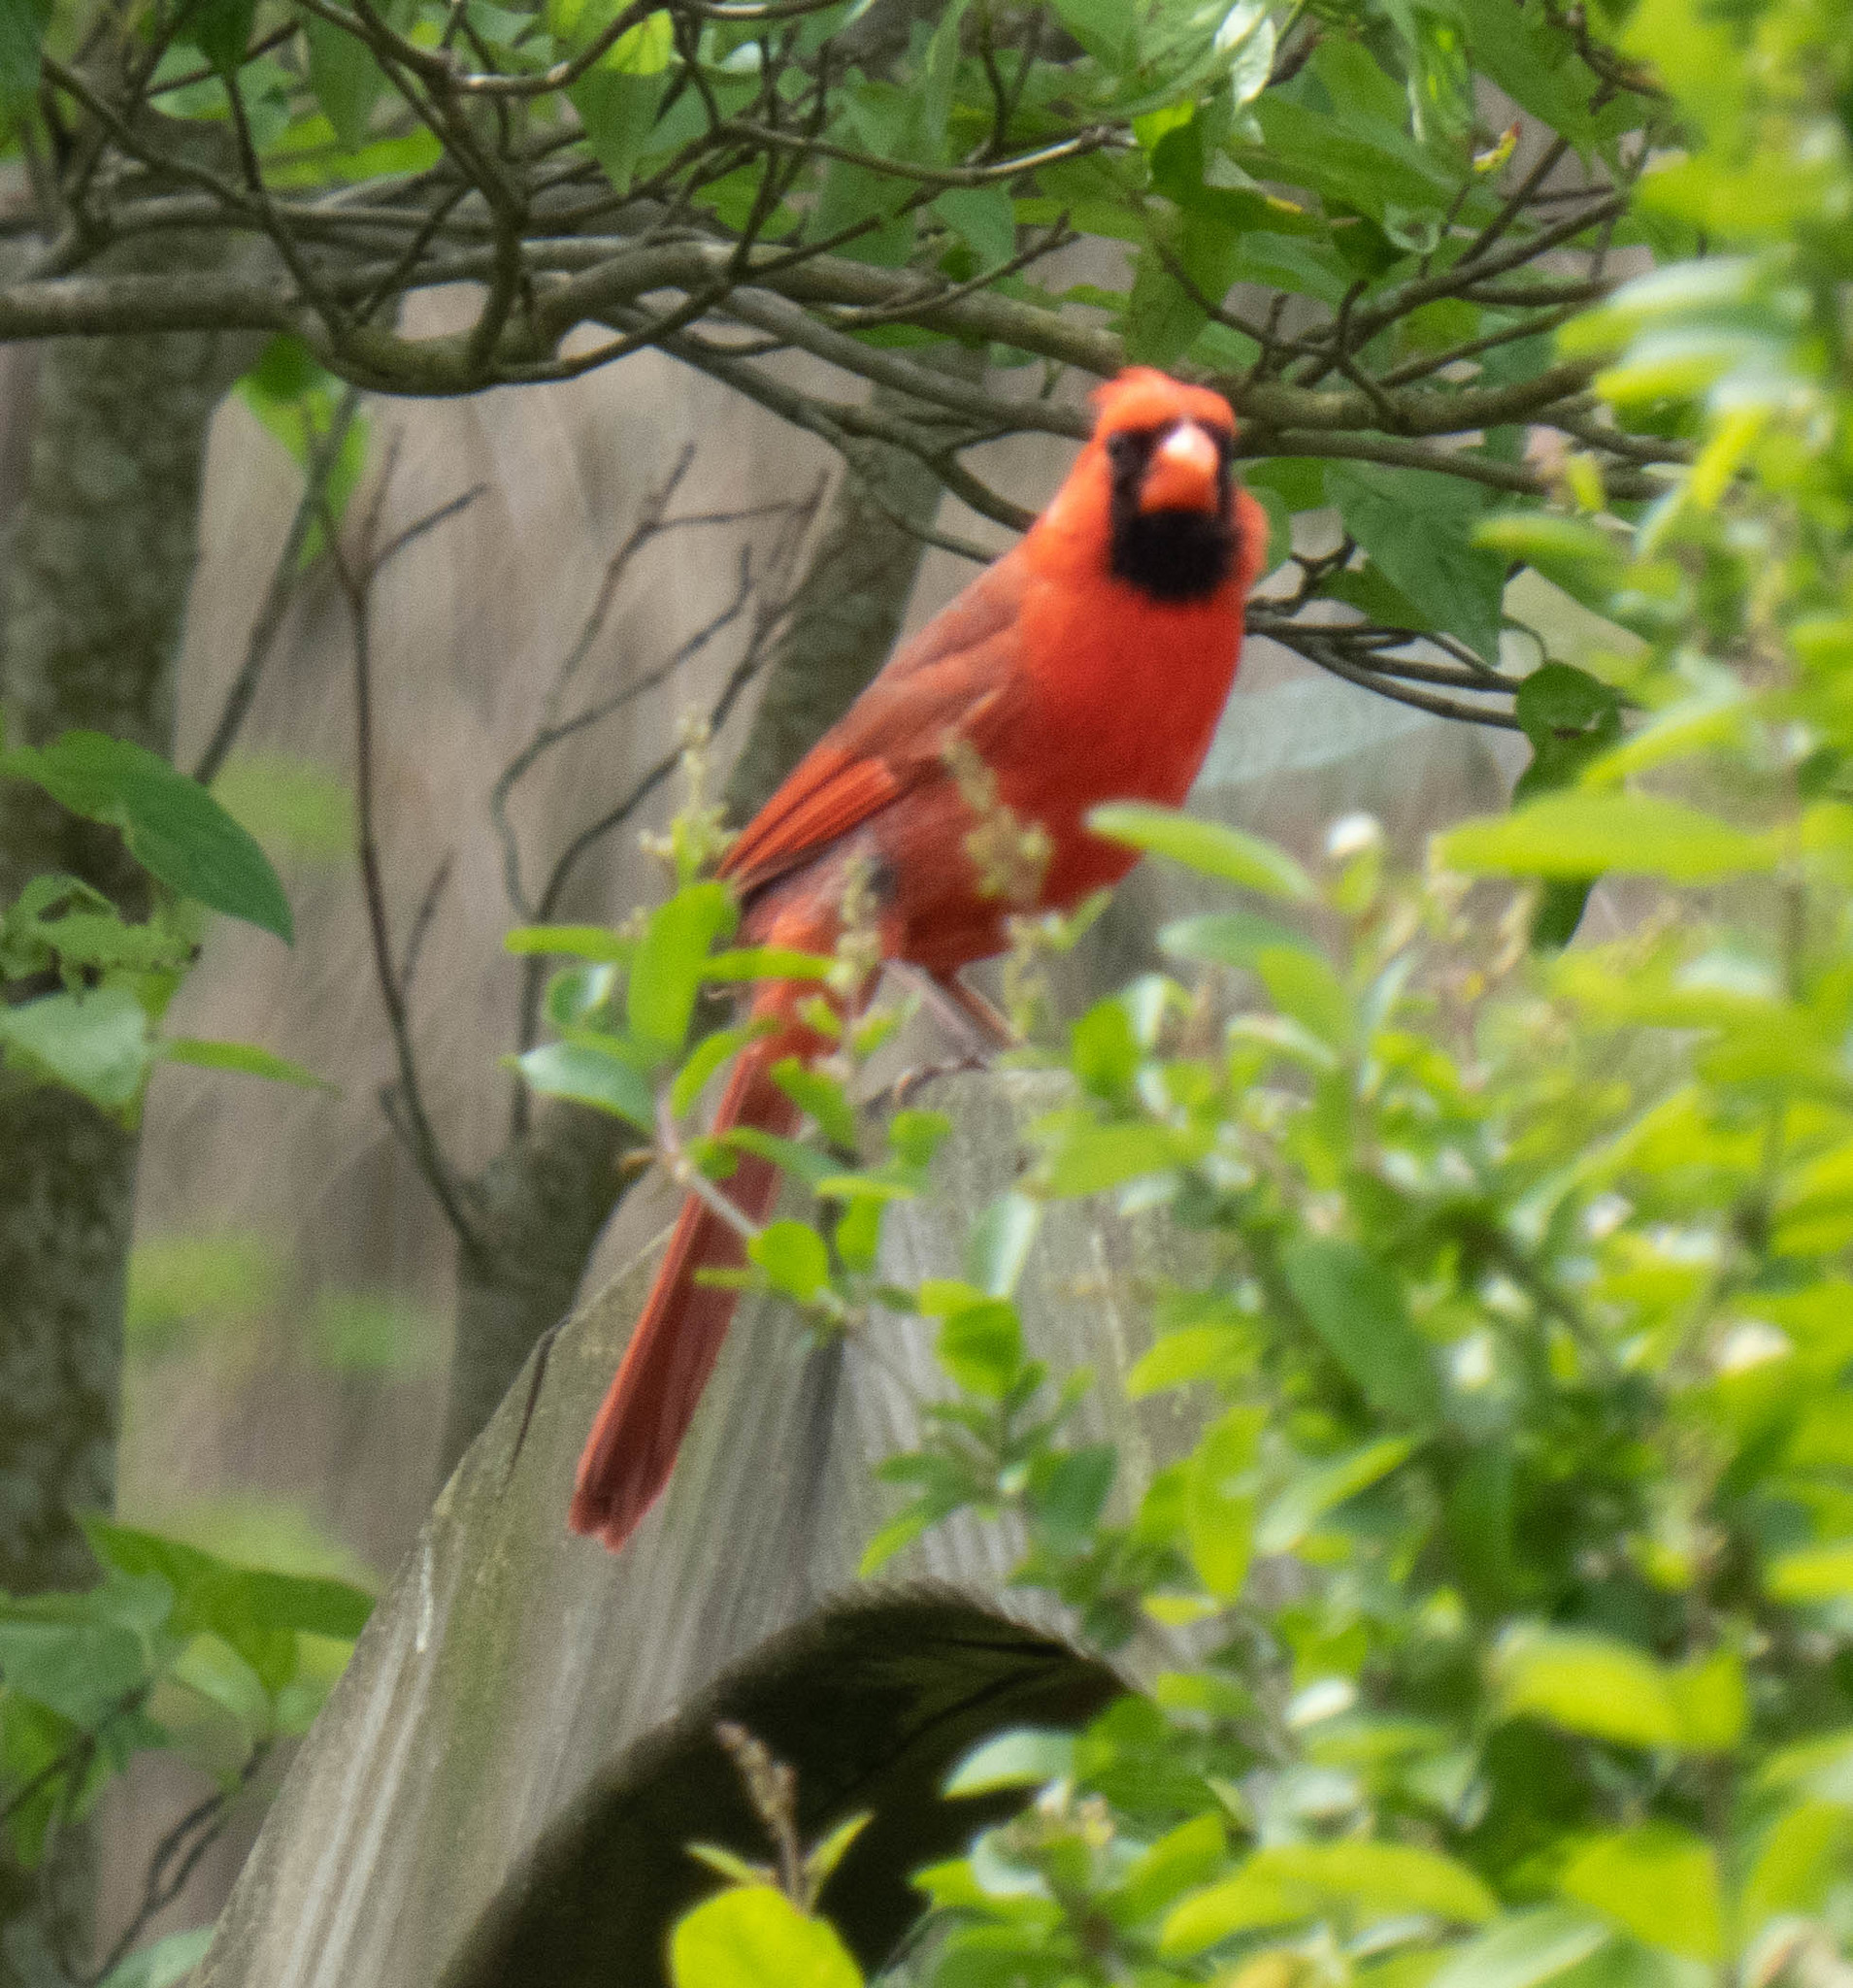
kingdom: Animalia
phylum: Chordata
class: Aves
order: Passeriformes
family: Cardinalidae
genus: Cardinalis
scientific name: Cardinalis cardinalis
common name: Northern cardinal
